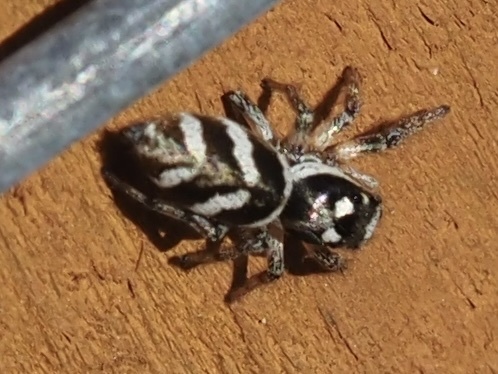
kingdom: Animalia
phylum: Arthropoda
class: Arachnida
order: Araneae
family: Salticidae
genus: Salticus
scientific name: Salticus scenicus
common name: Zebra jumper
